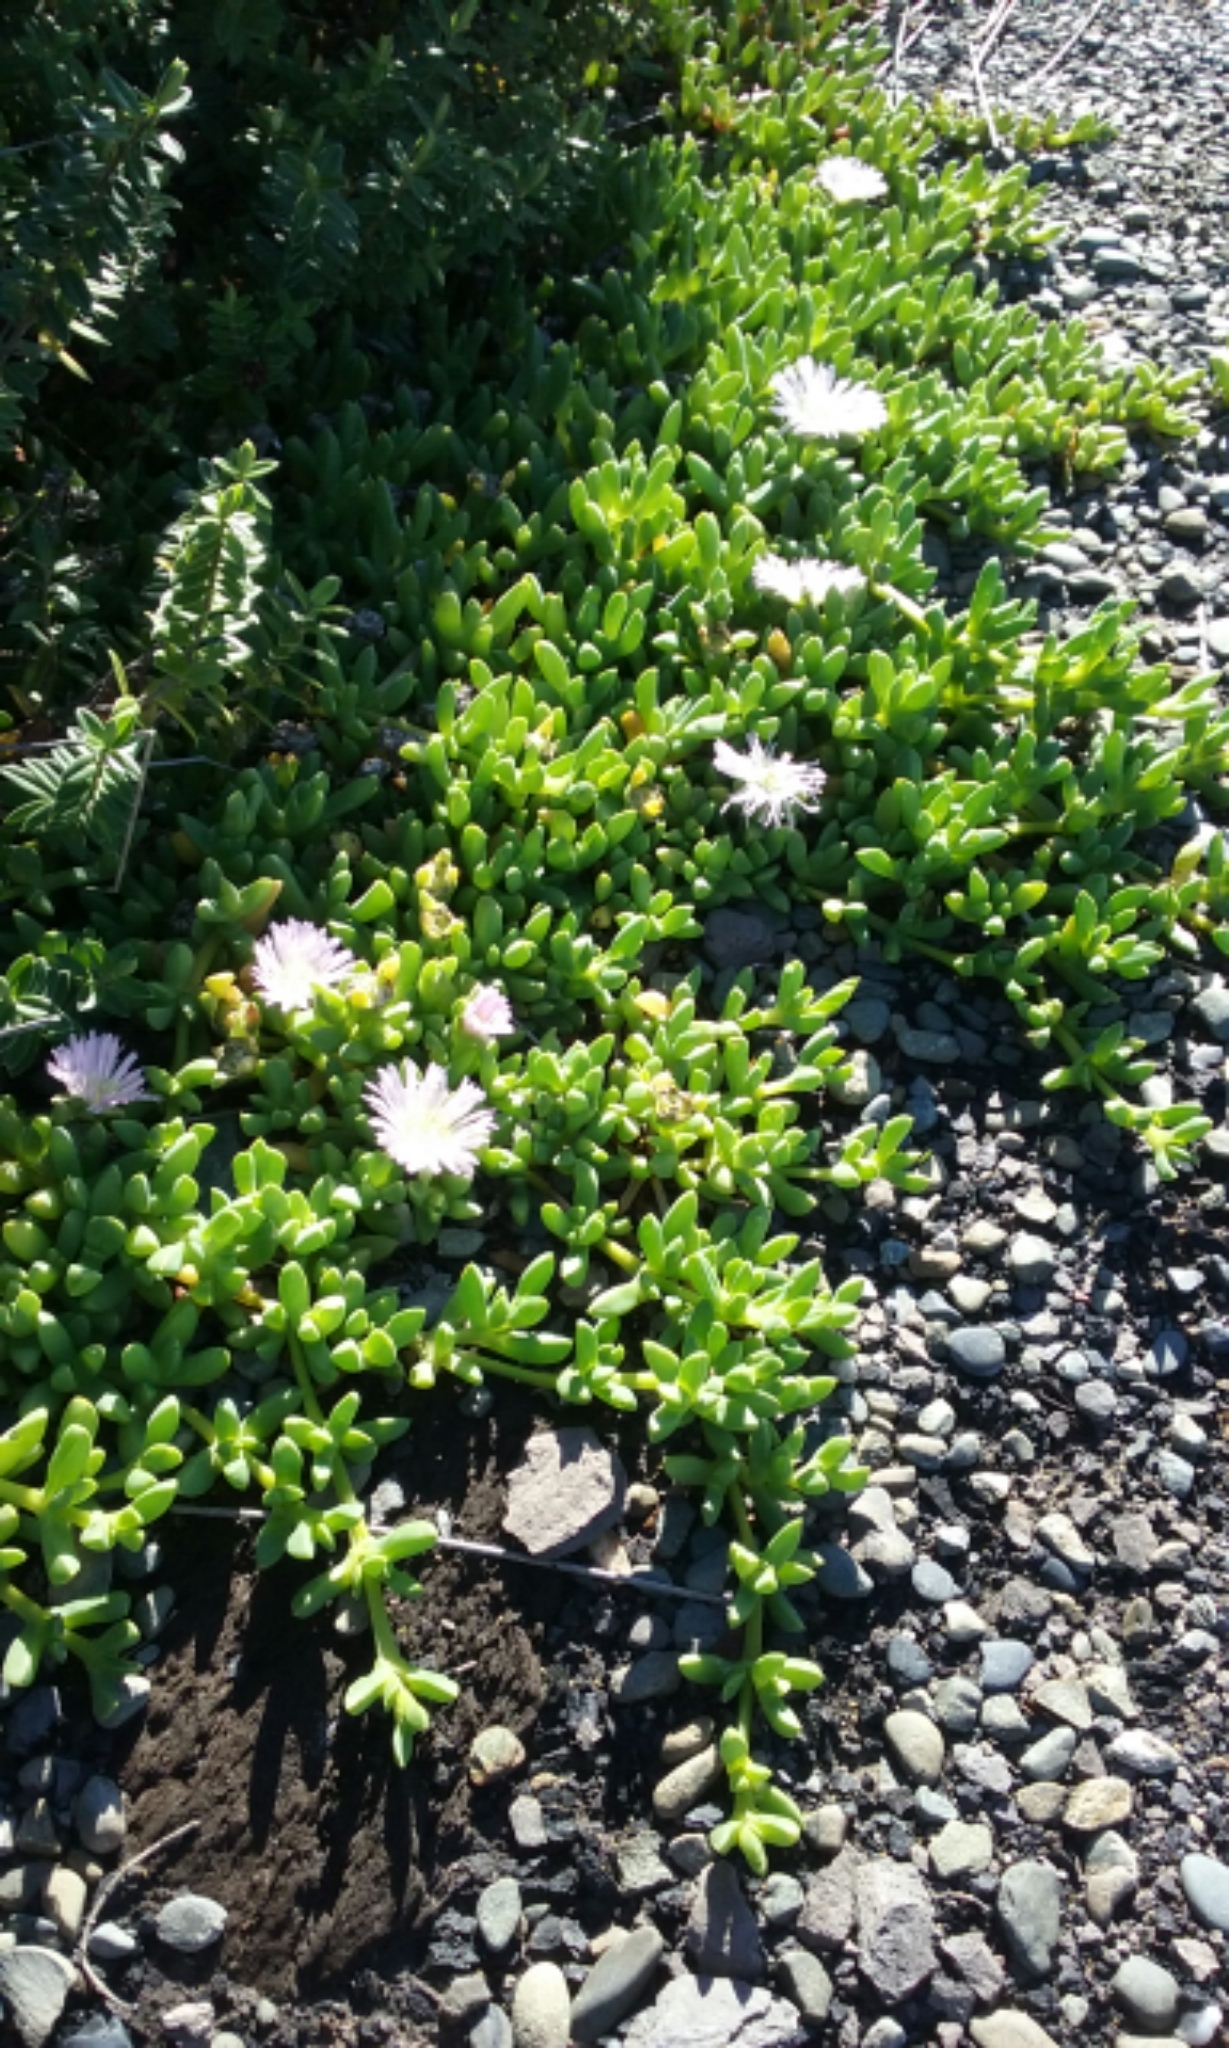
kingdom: Plantae
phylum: Tracheophyta
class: Magnoliopsida
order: Caryophyllales
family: Aizoaceae
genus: Disphyma
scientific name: Disphyma australe
